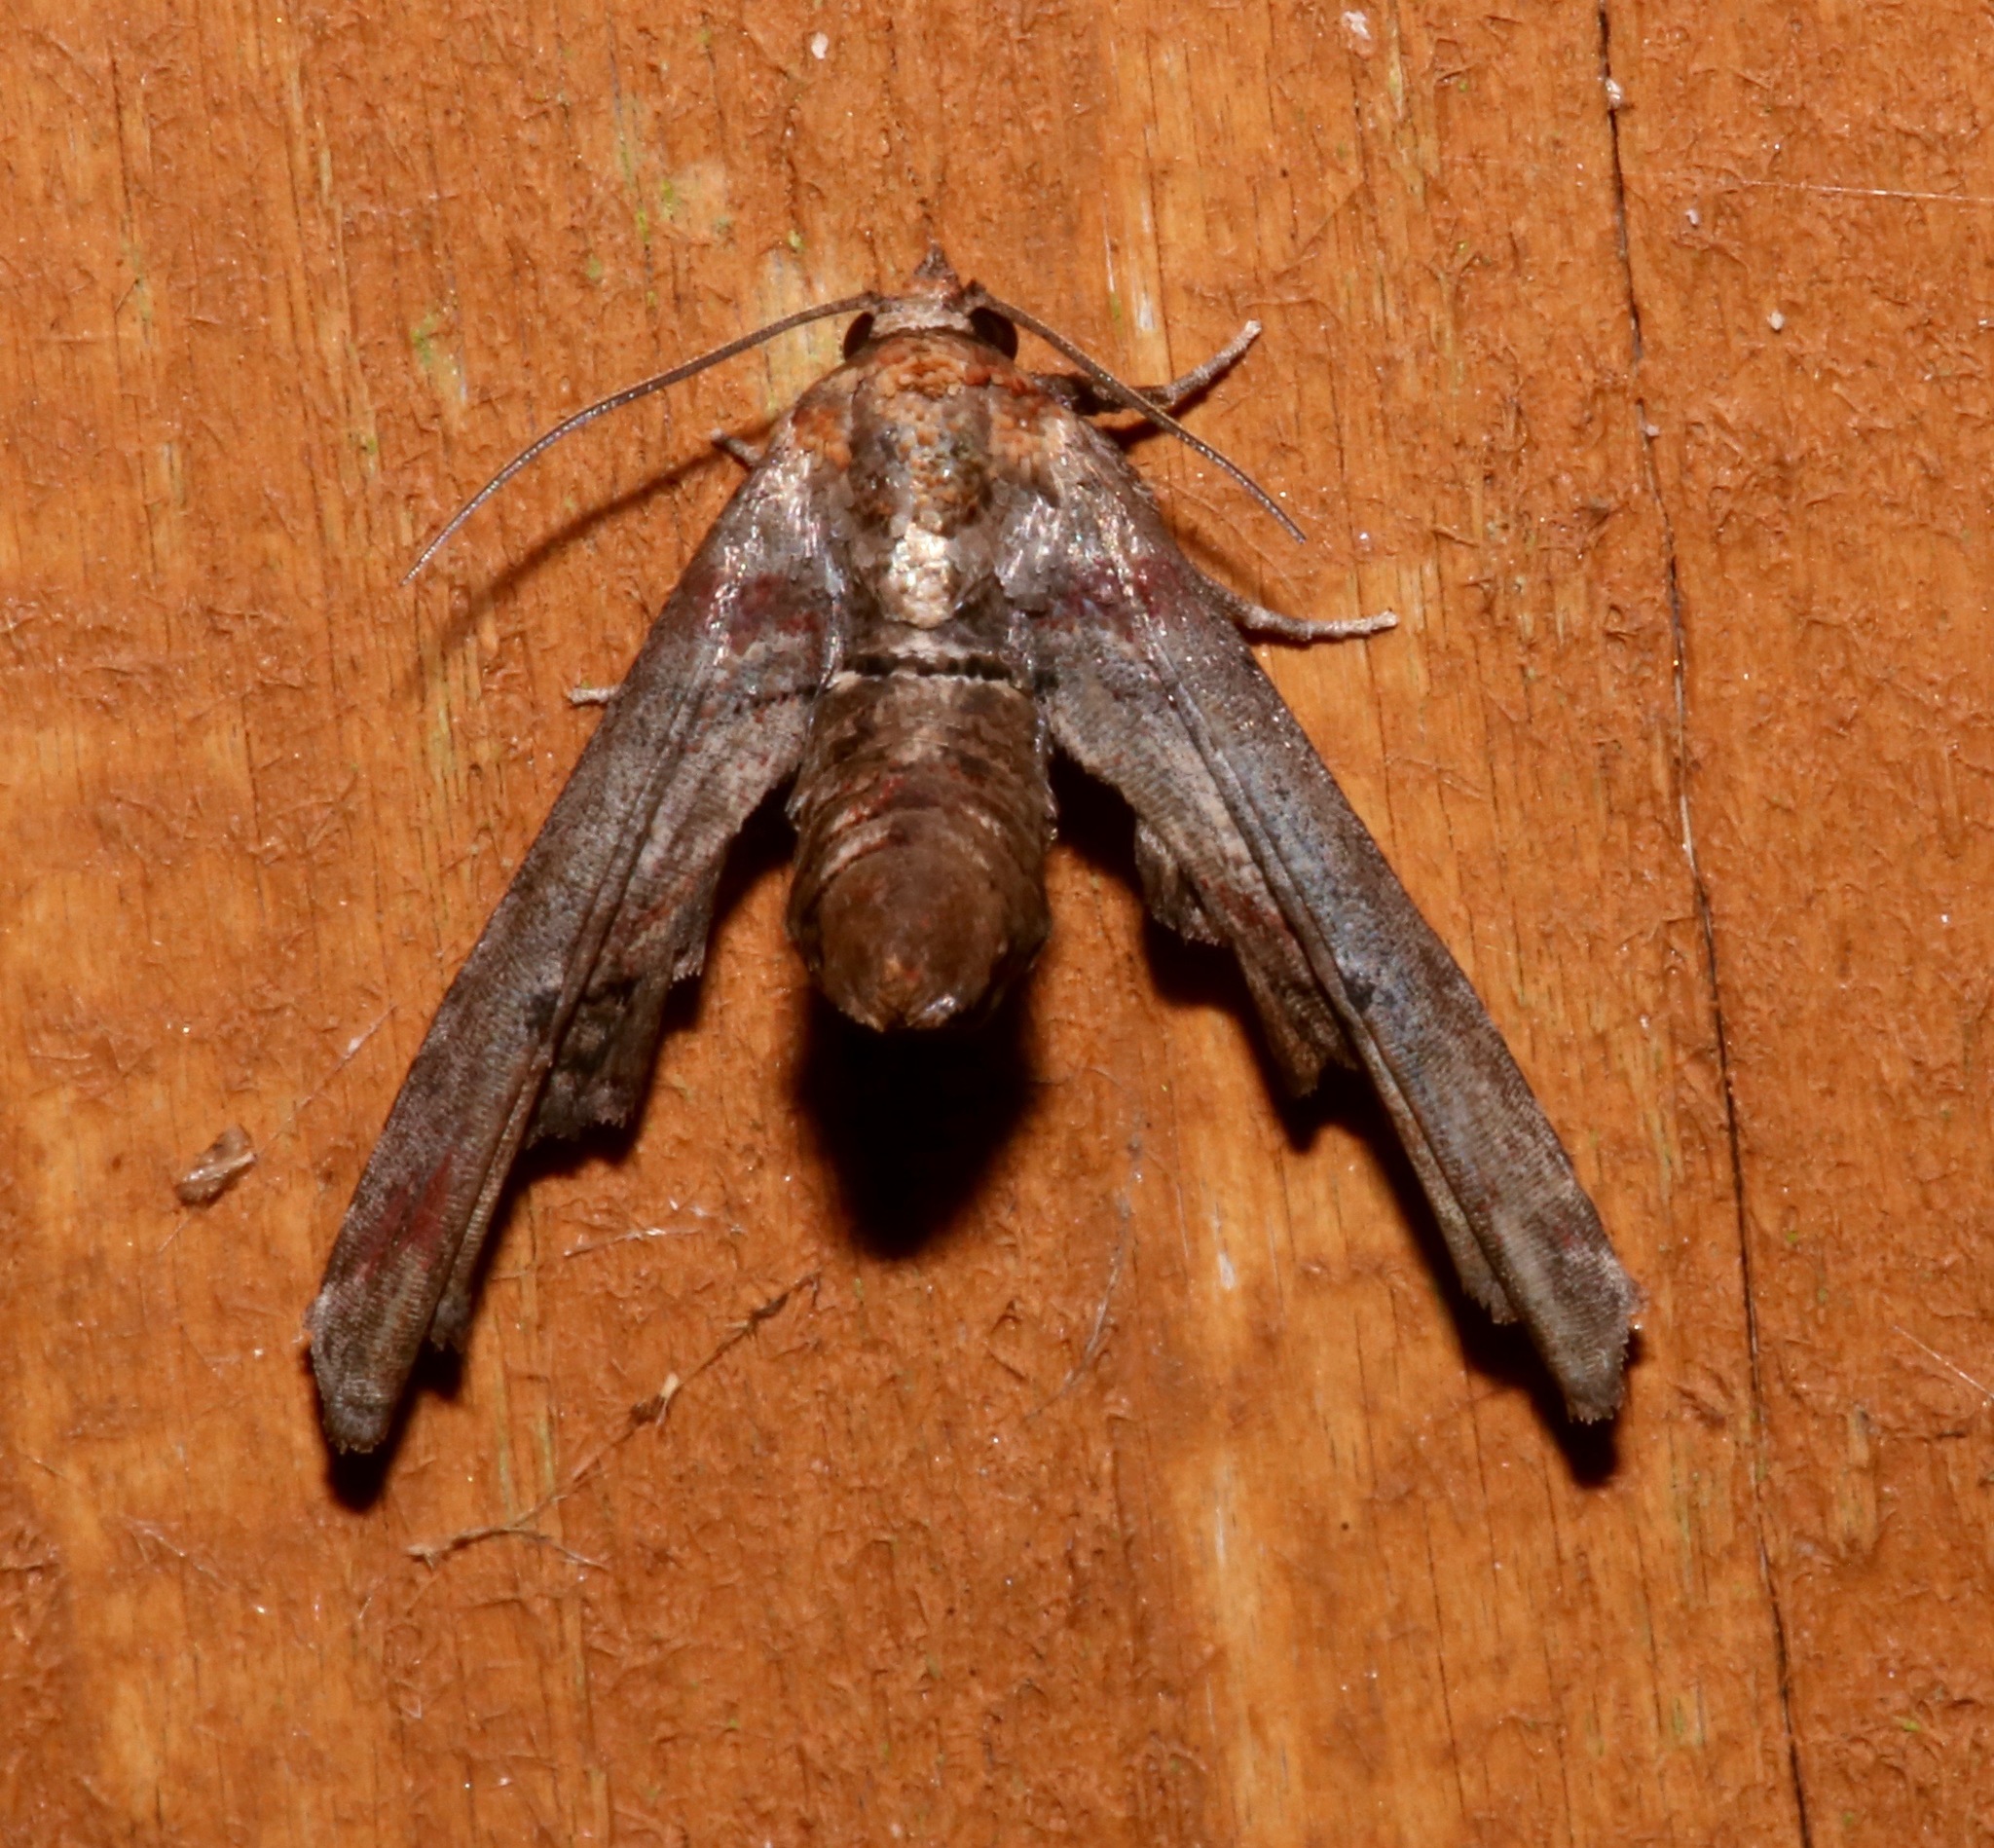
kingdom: Animalia
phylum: Arthropoda
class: Insecta
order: Lepidoptera
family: Euteliidae
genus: Marathyssa
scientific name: Marathyssa inficita
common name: Dark marathyssa moth
